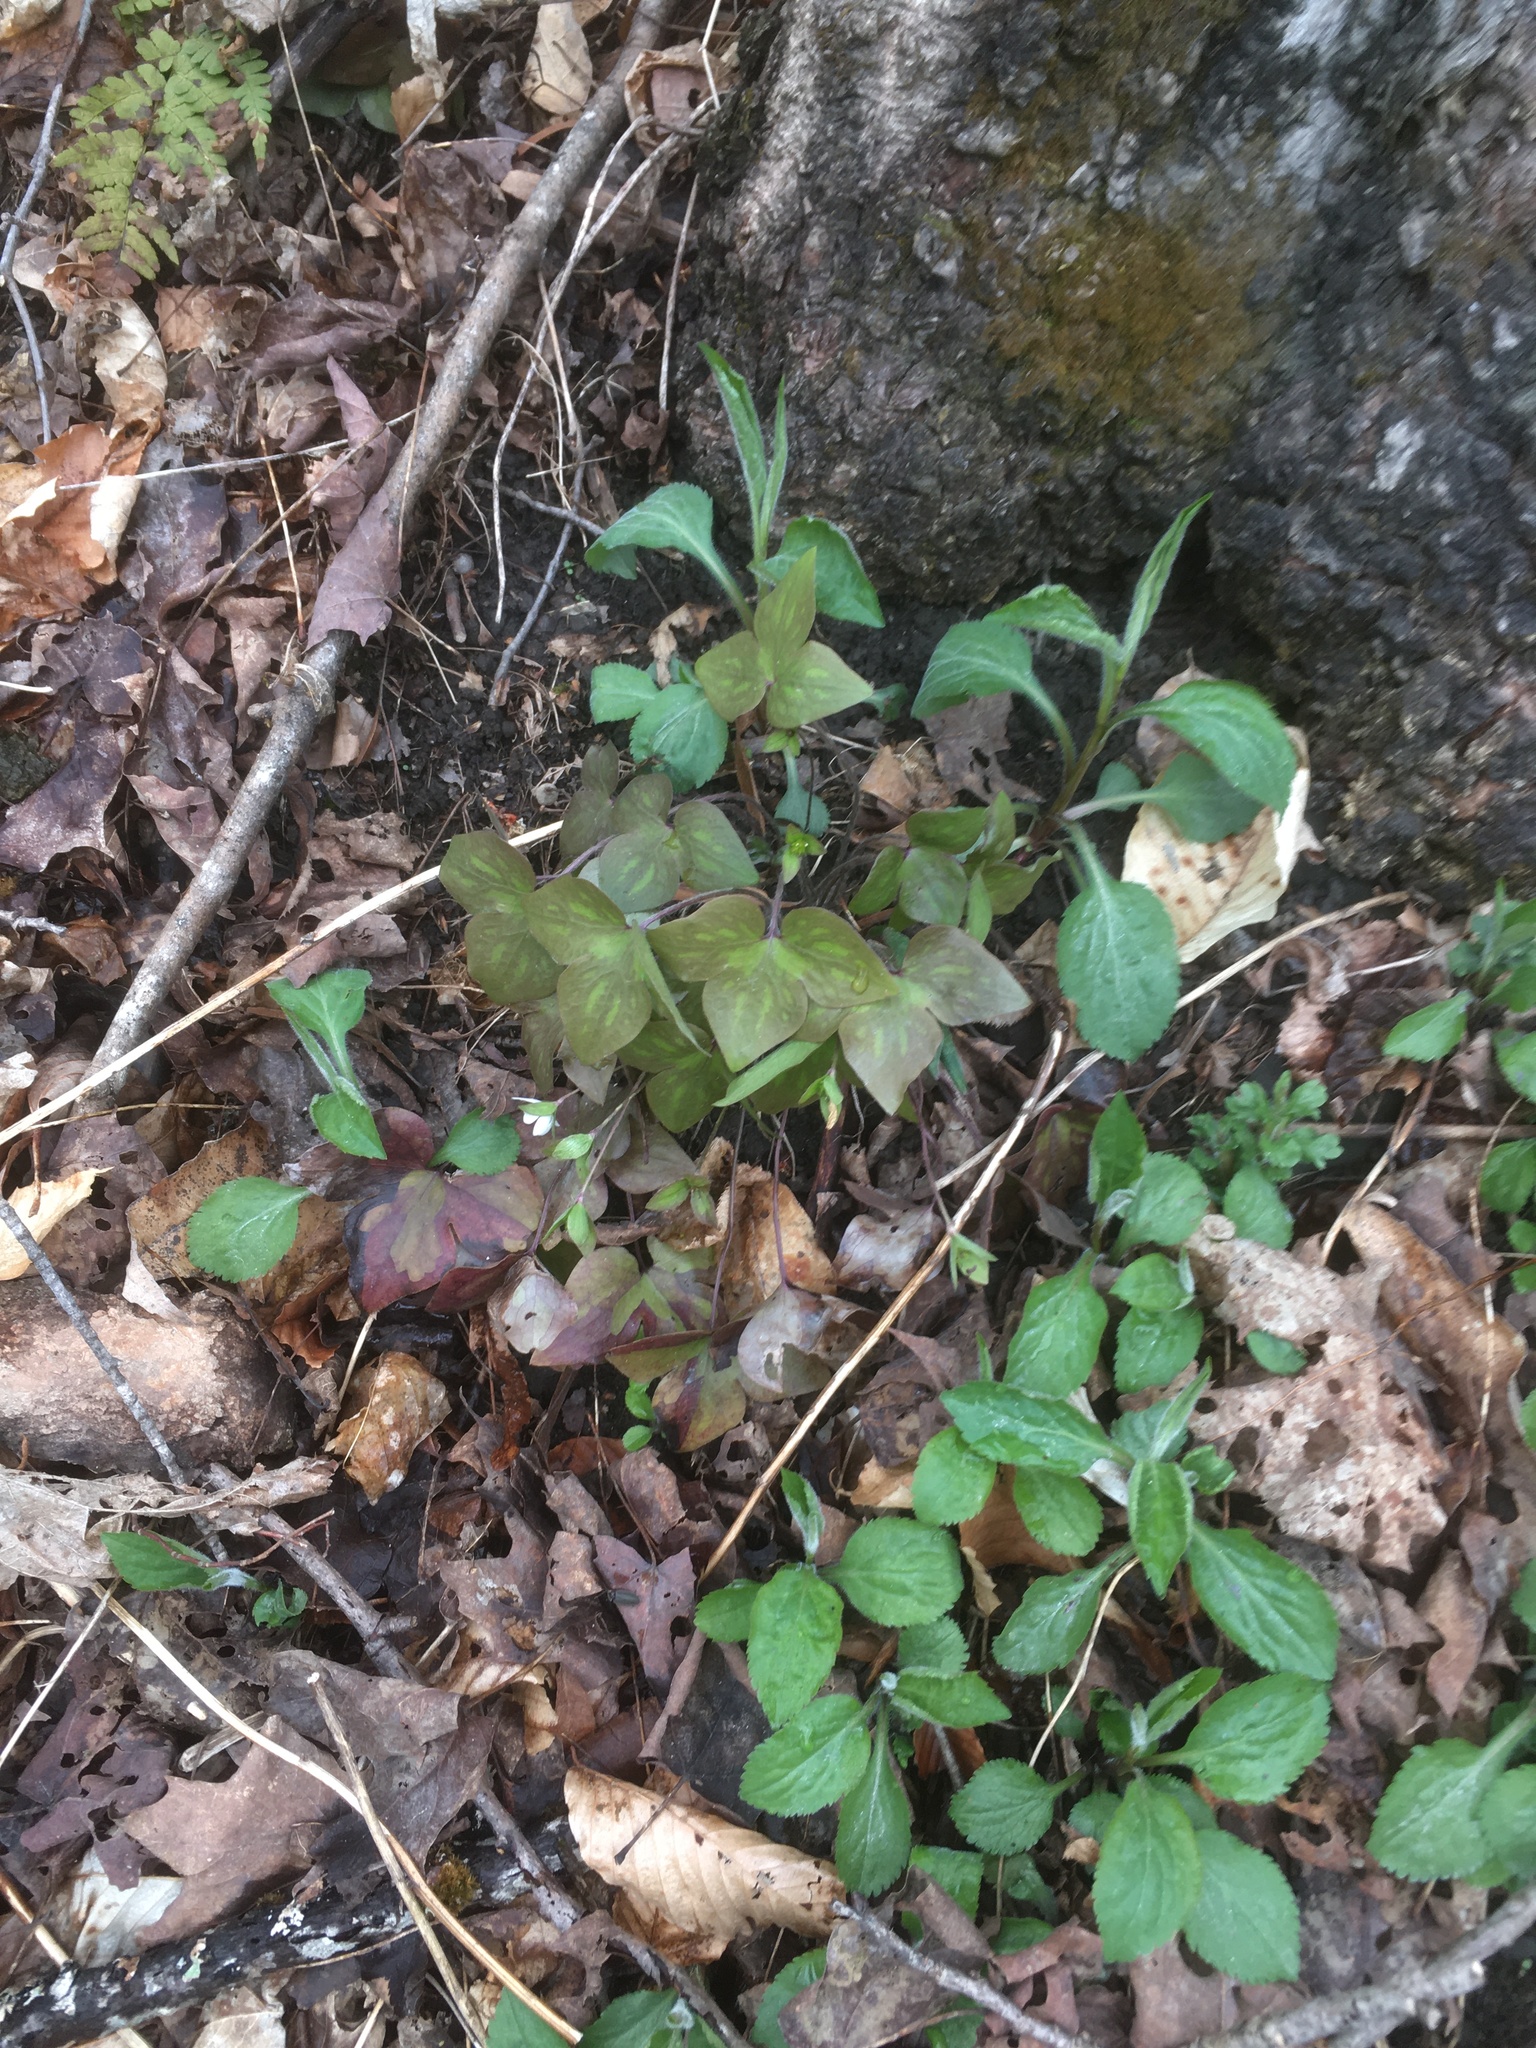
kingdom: Plantae
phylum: Tracheophyta
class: Magnoliopsida
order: Ranunculales
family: Ranunculaceae
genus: Hepatica
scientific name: Hepatica acutiloba
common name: Sharp-lobed hepatica
